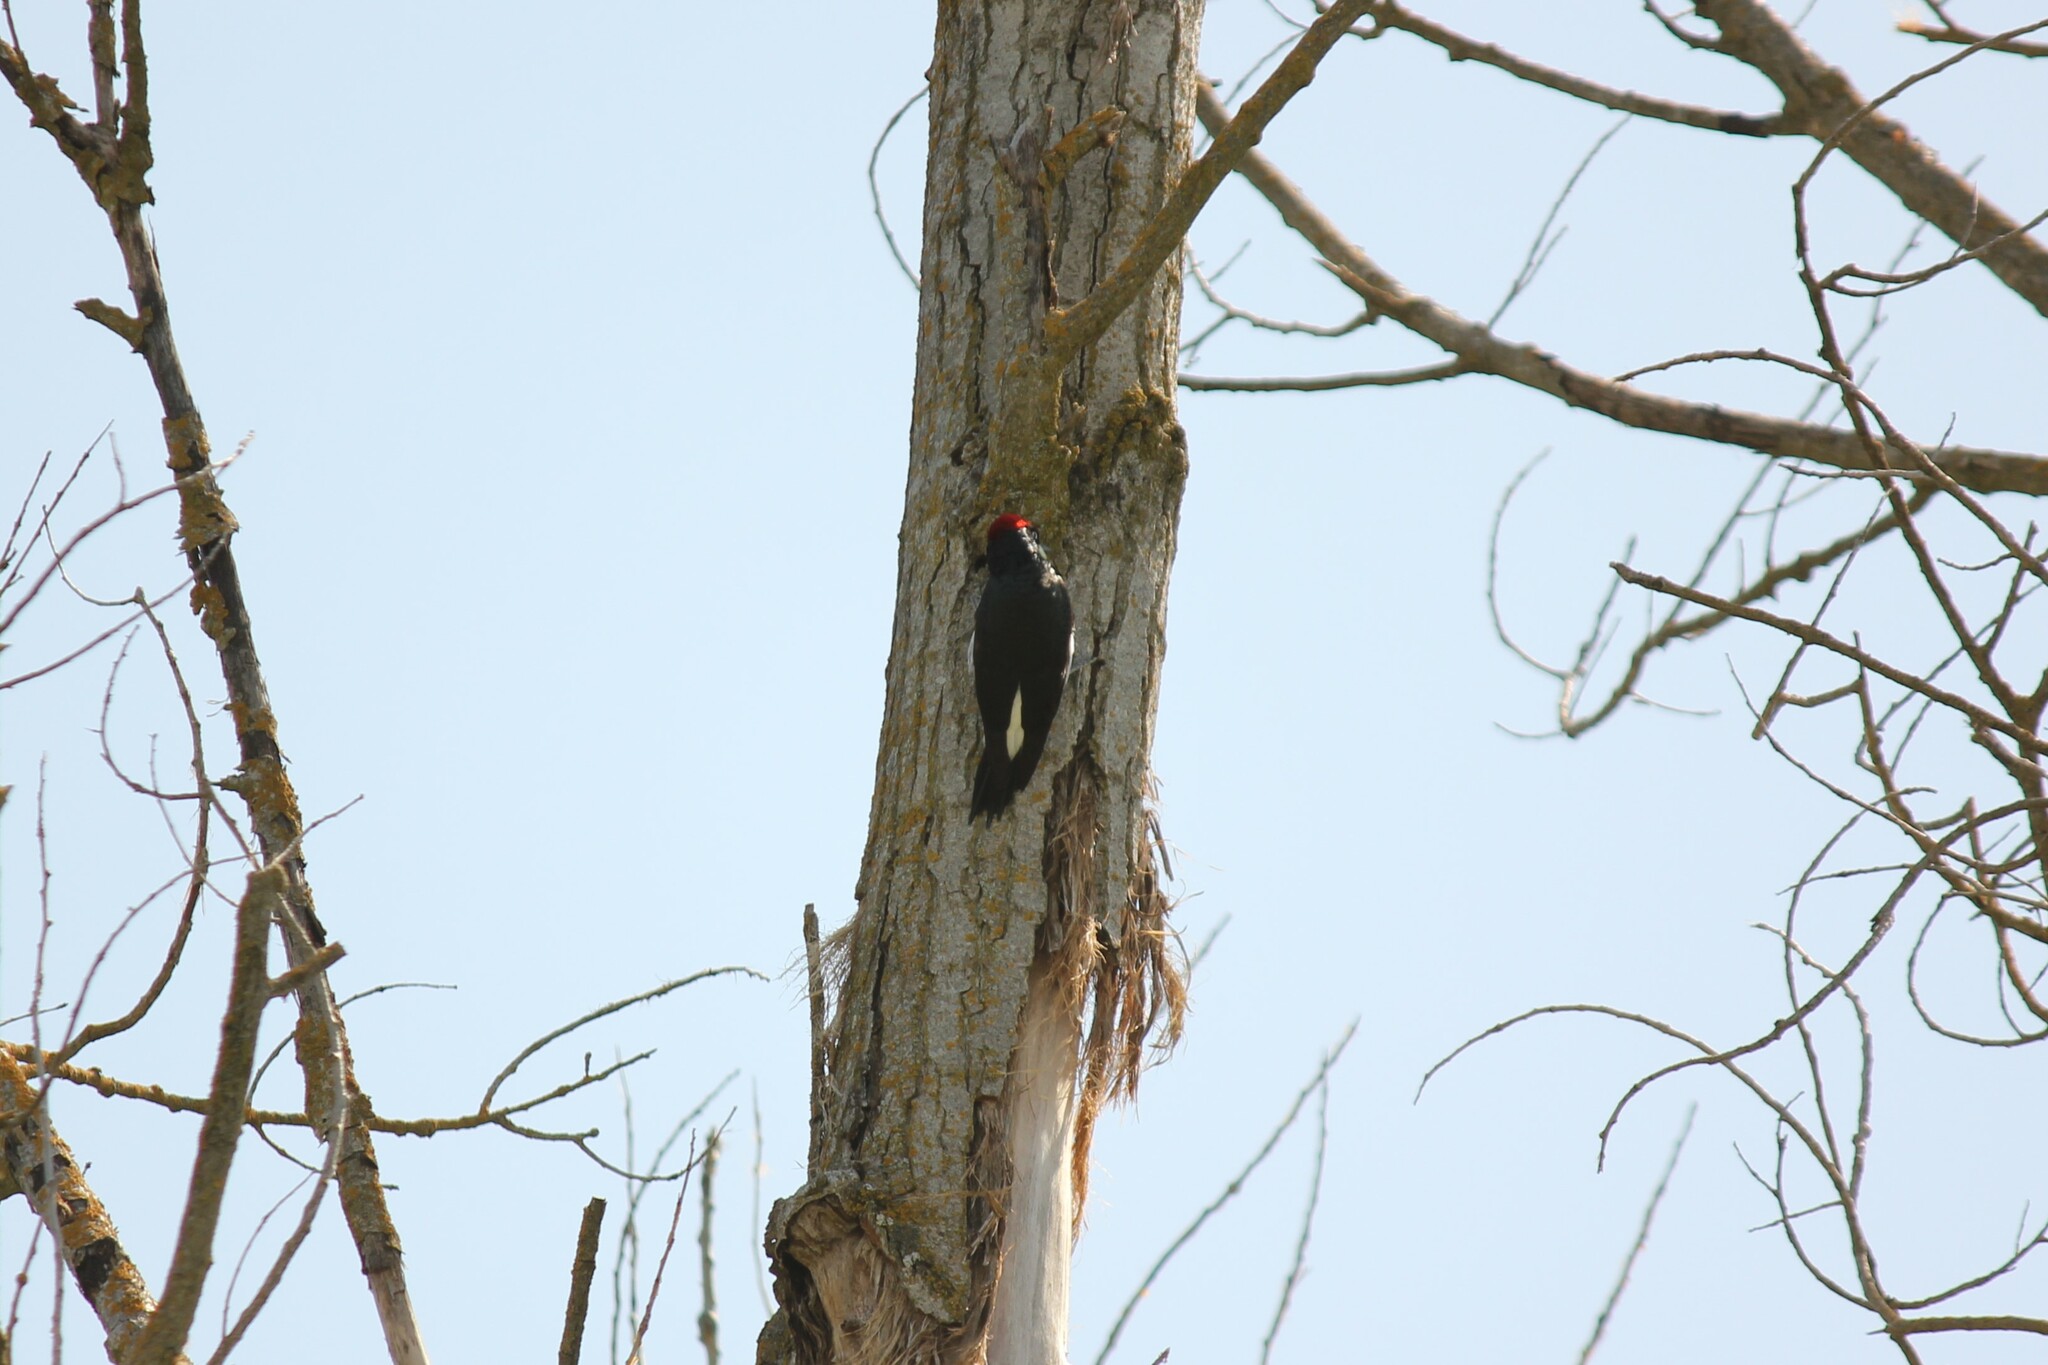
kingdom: Animalia
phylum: Chordata
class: Aves
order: Piciformes
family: Picidae
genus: Melanerpes
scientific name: Melanerpes formicivorus
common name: Acorn woodpecker
